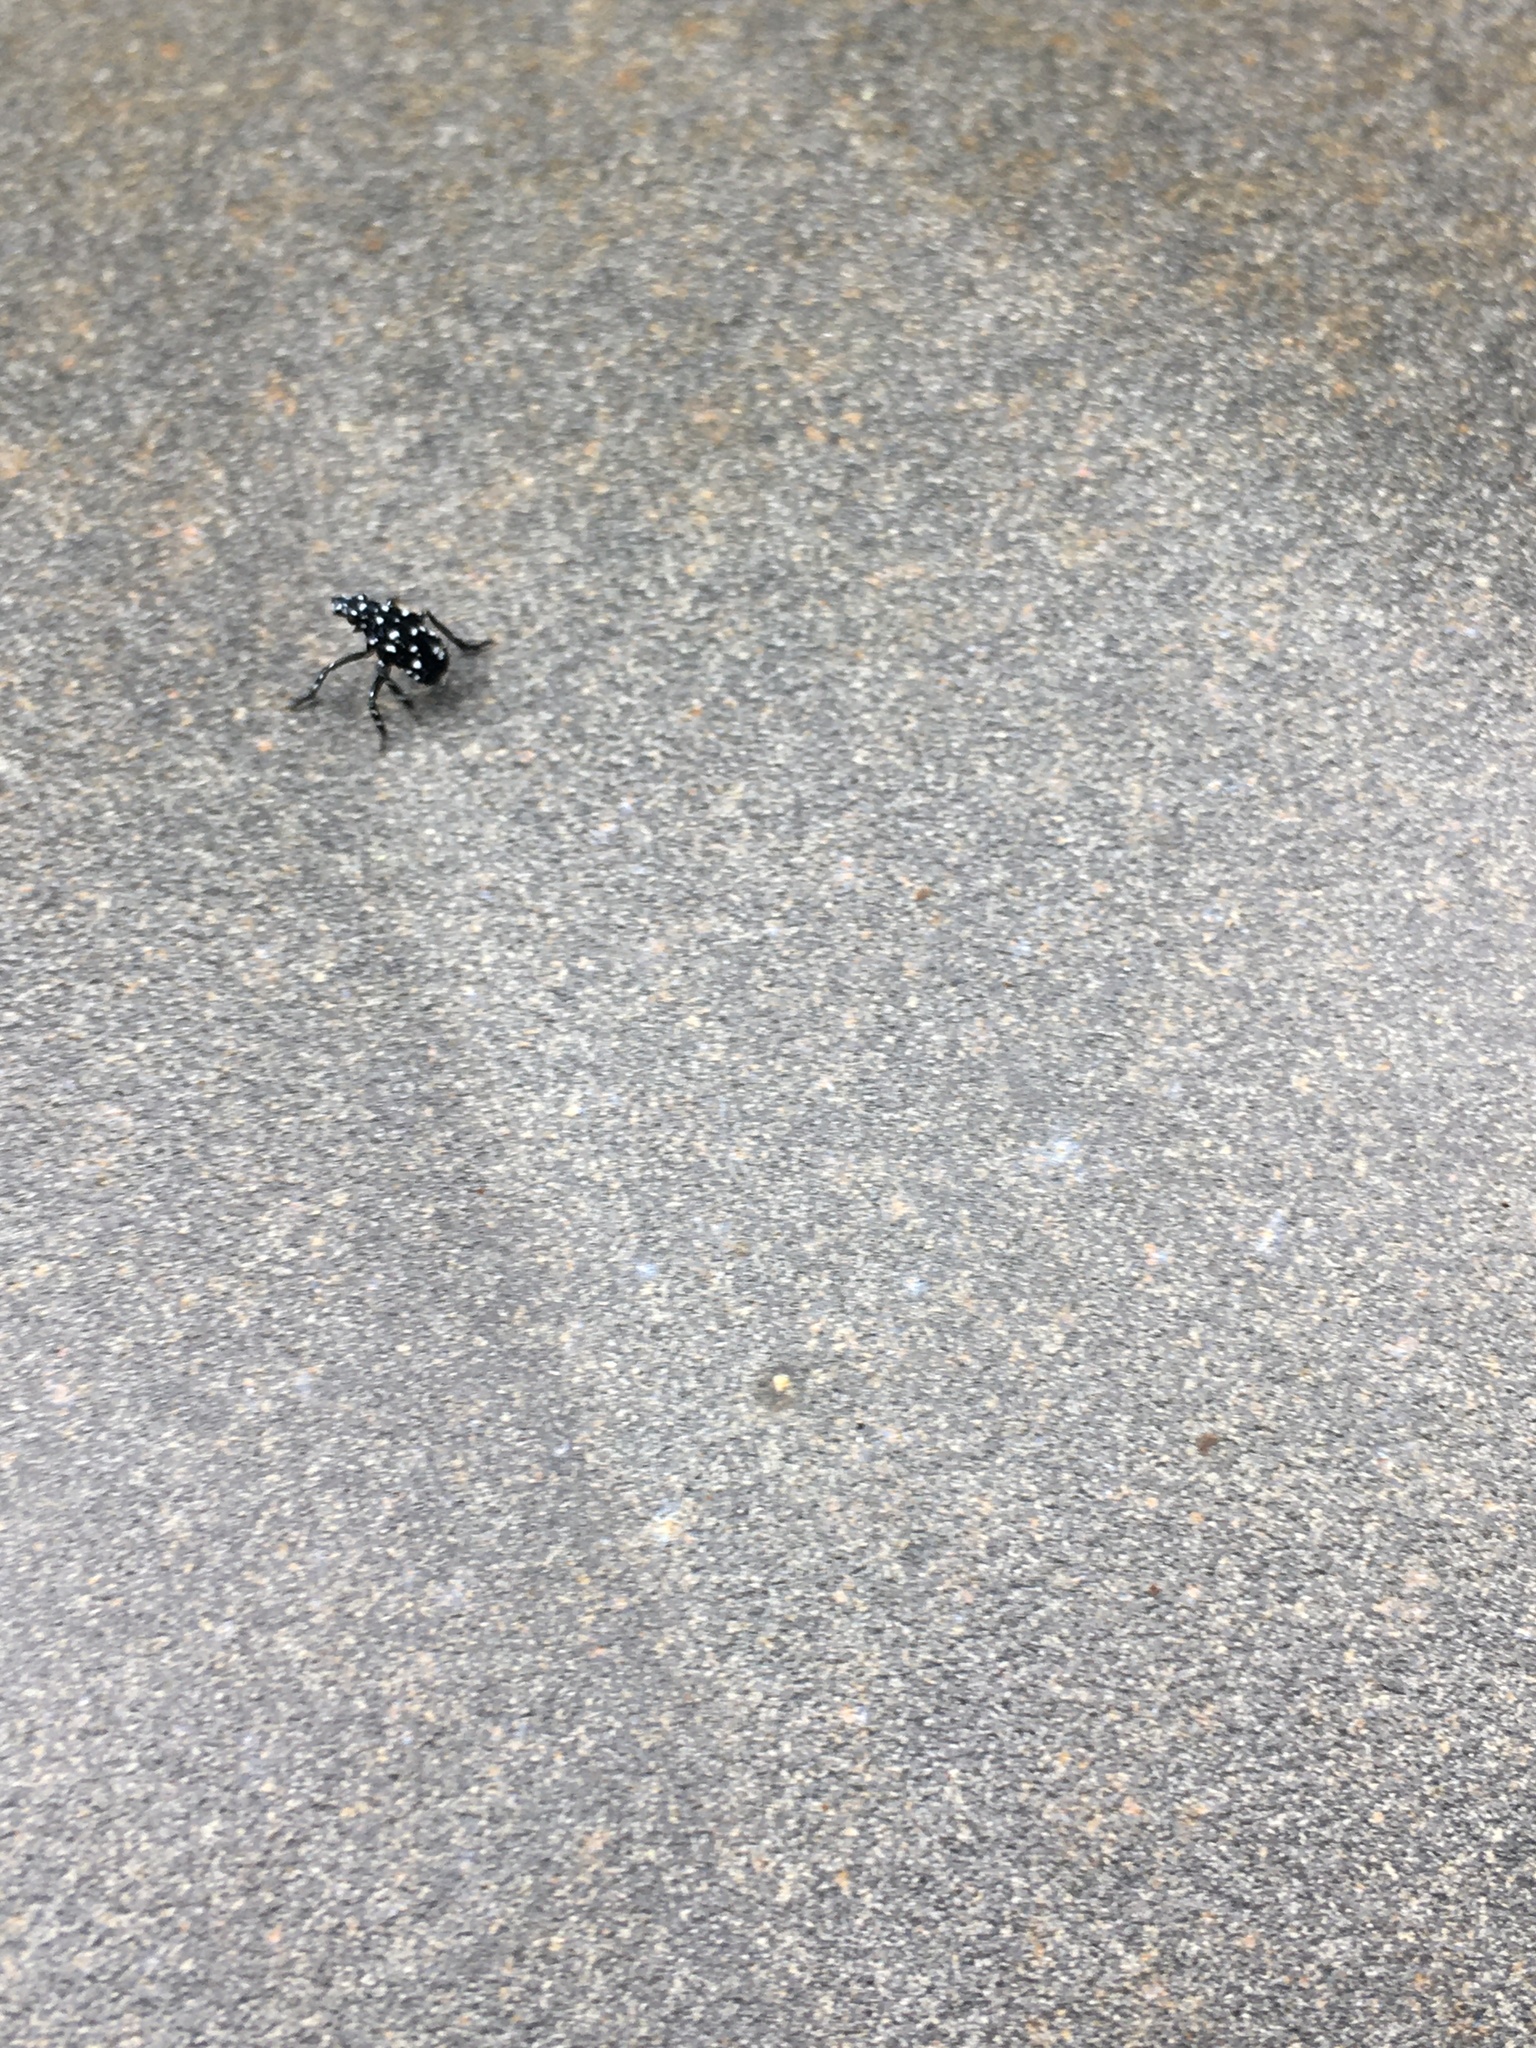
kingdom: Animalia
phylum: Arthropoda
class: Insecta
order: Hemiptera
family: Fulgoridae
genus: Lycorma
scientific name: Lycorma delicatula
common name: Spotted lanternfly
